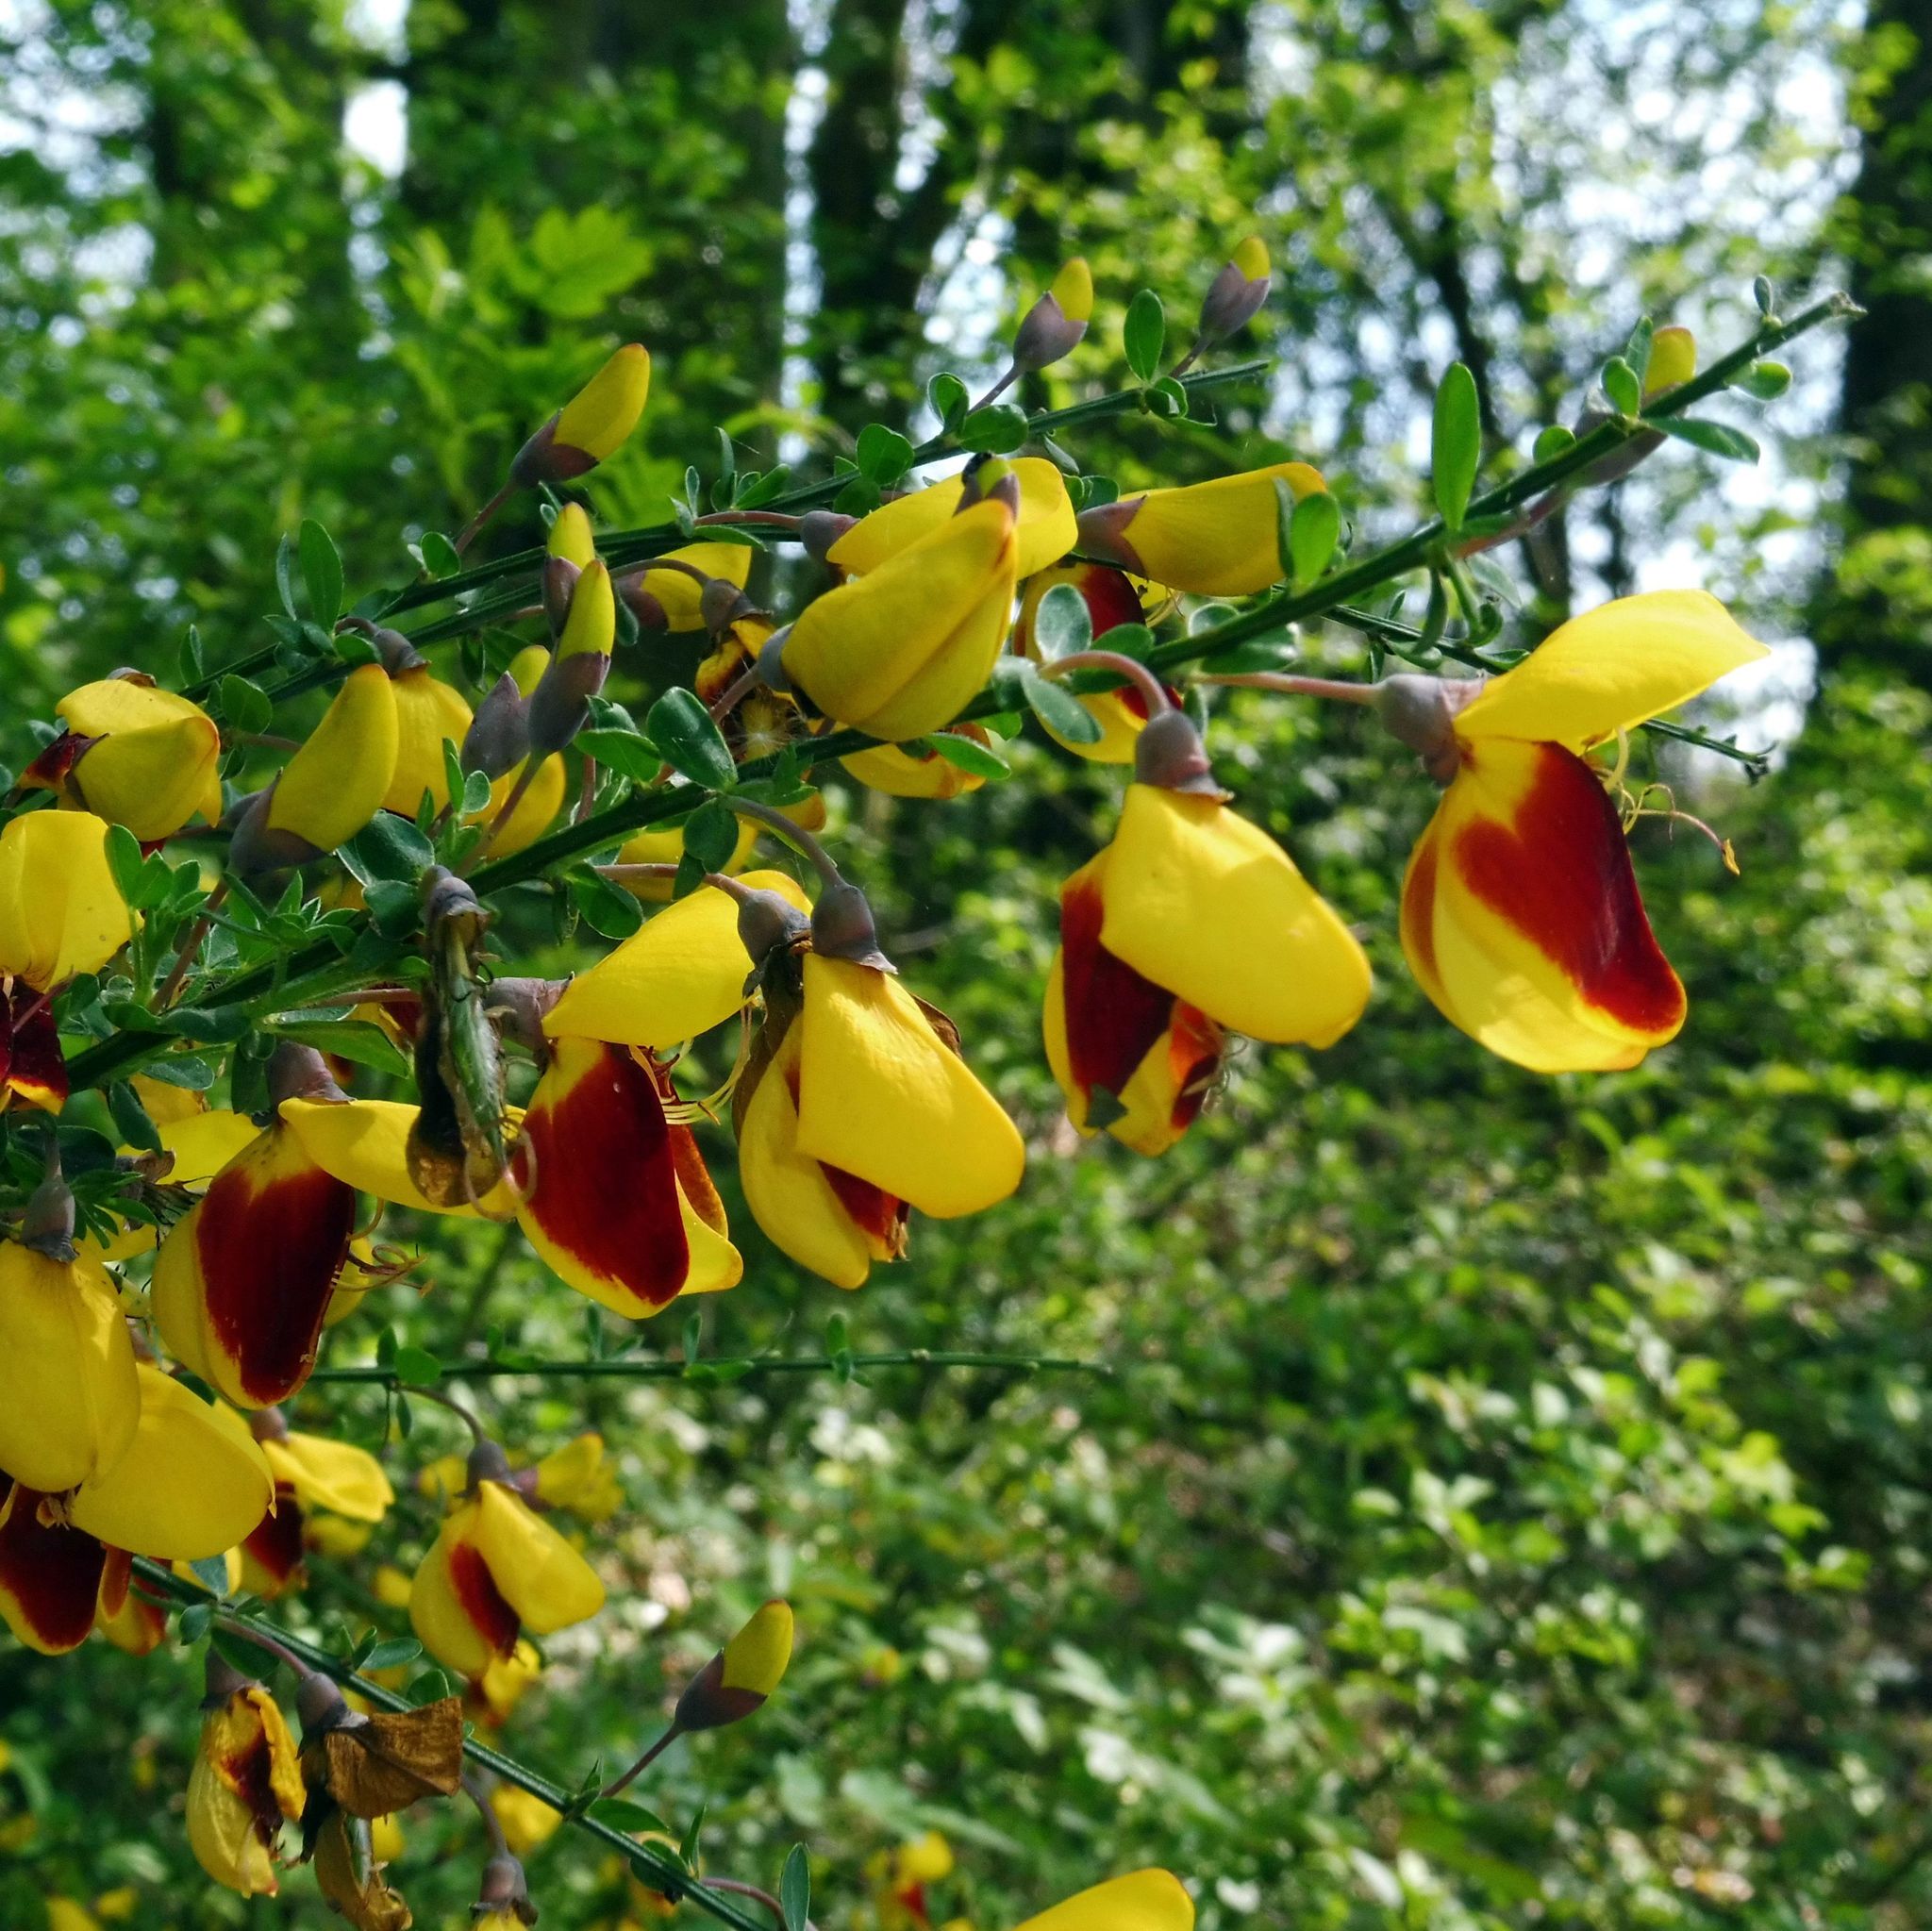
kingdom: Plantae
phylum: Tracheophyta
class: Magnoliopsida
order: Fabales
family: Fabaceae
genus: Cytisus
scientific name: Cytisus scoparius
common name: Scotch broom
